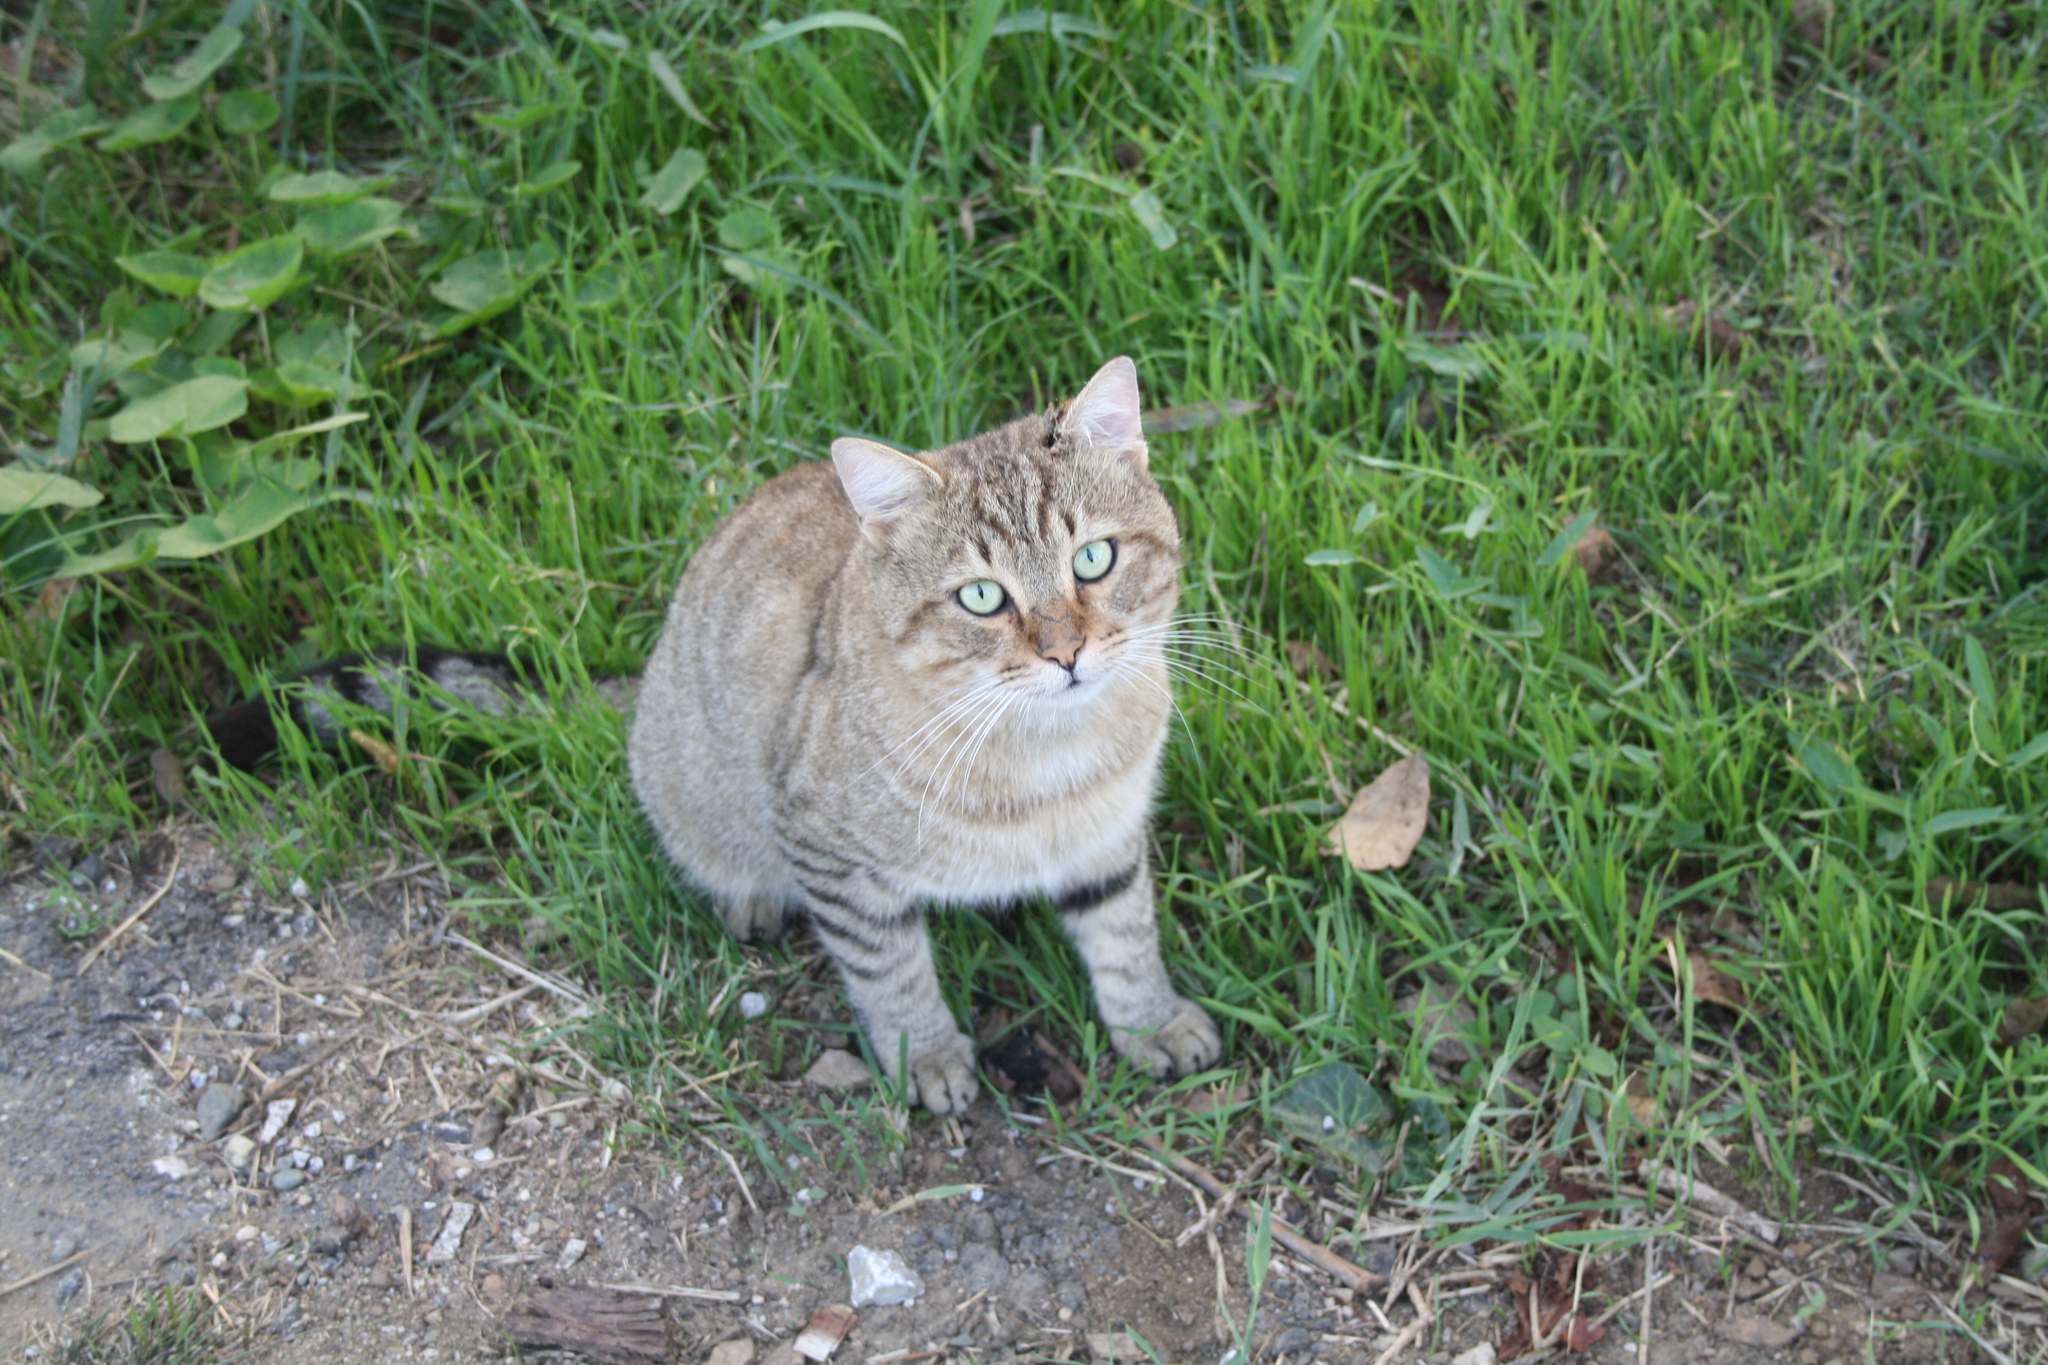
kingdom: Animalia
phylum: Chordata
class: Mammalia
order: Carnivora
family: Felidae
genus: Felis
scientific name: Felis catus
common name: Domestic cat
